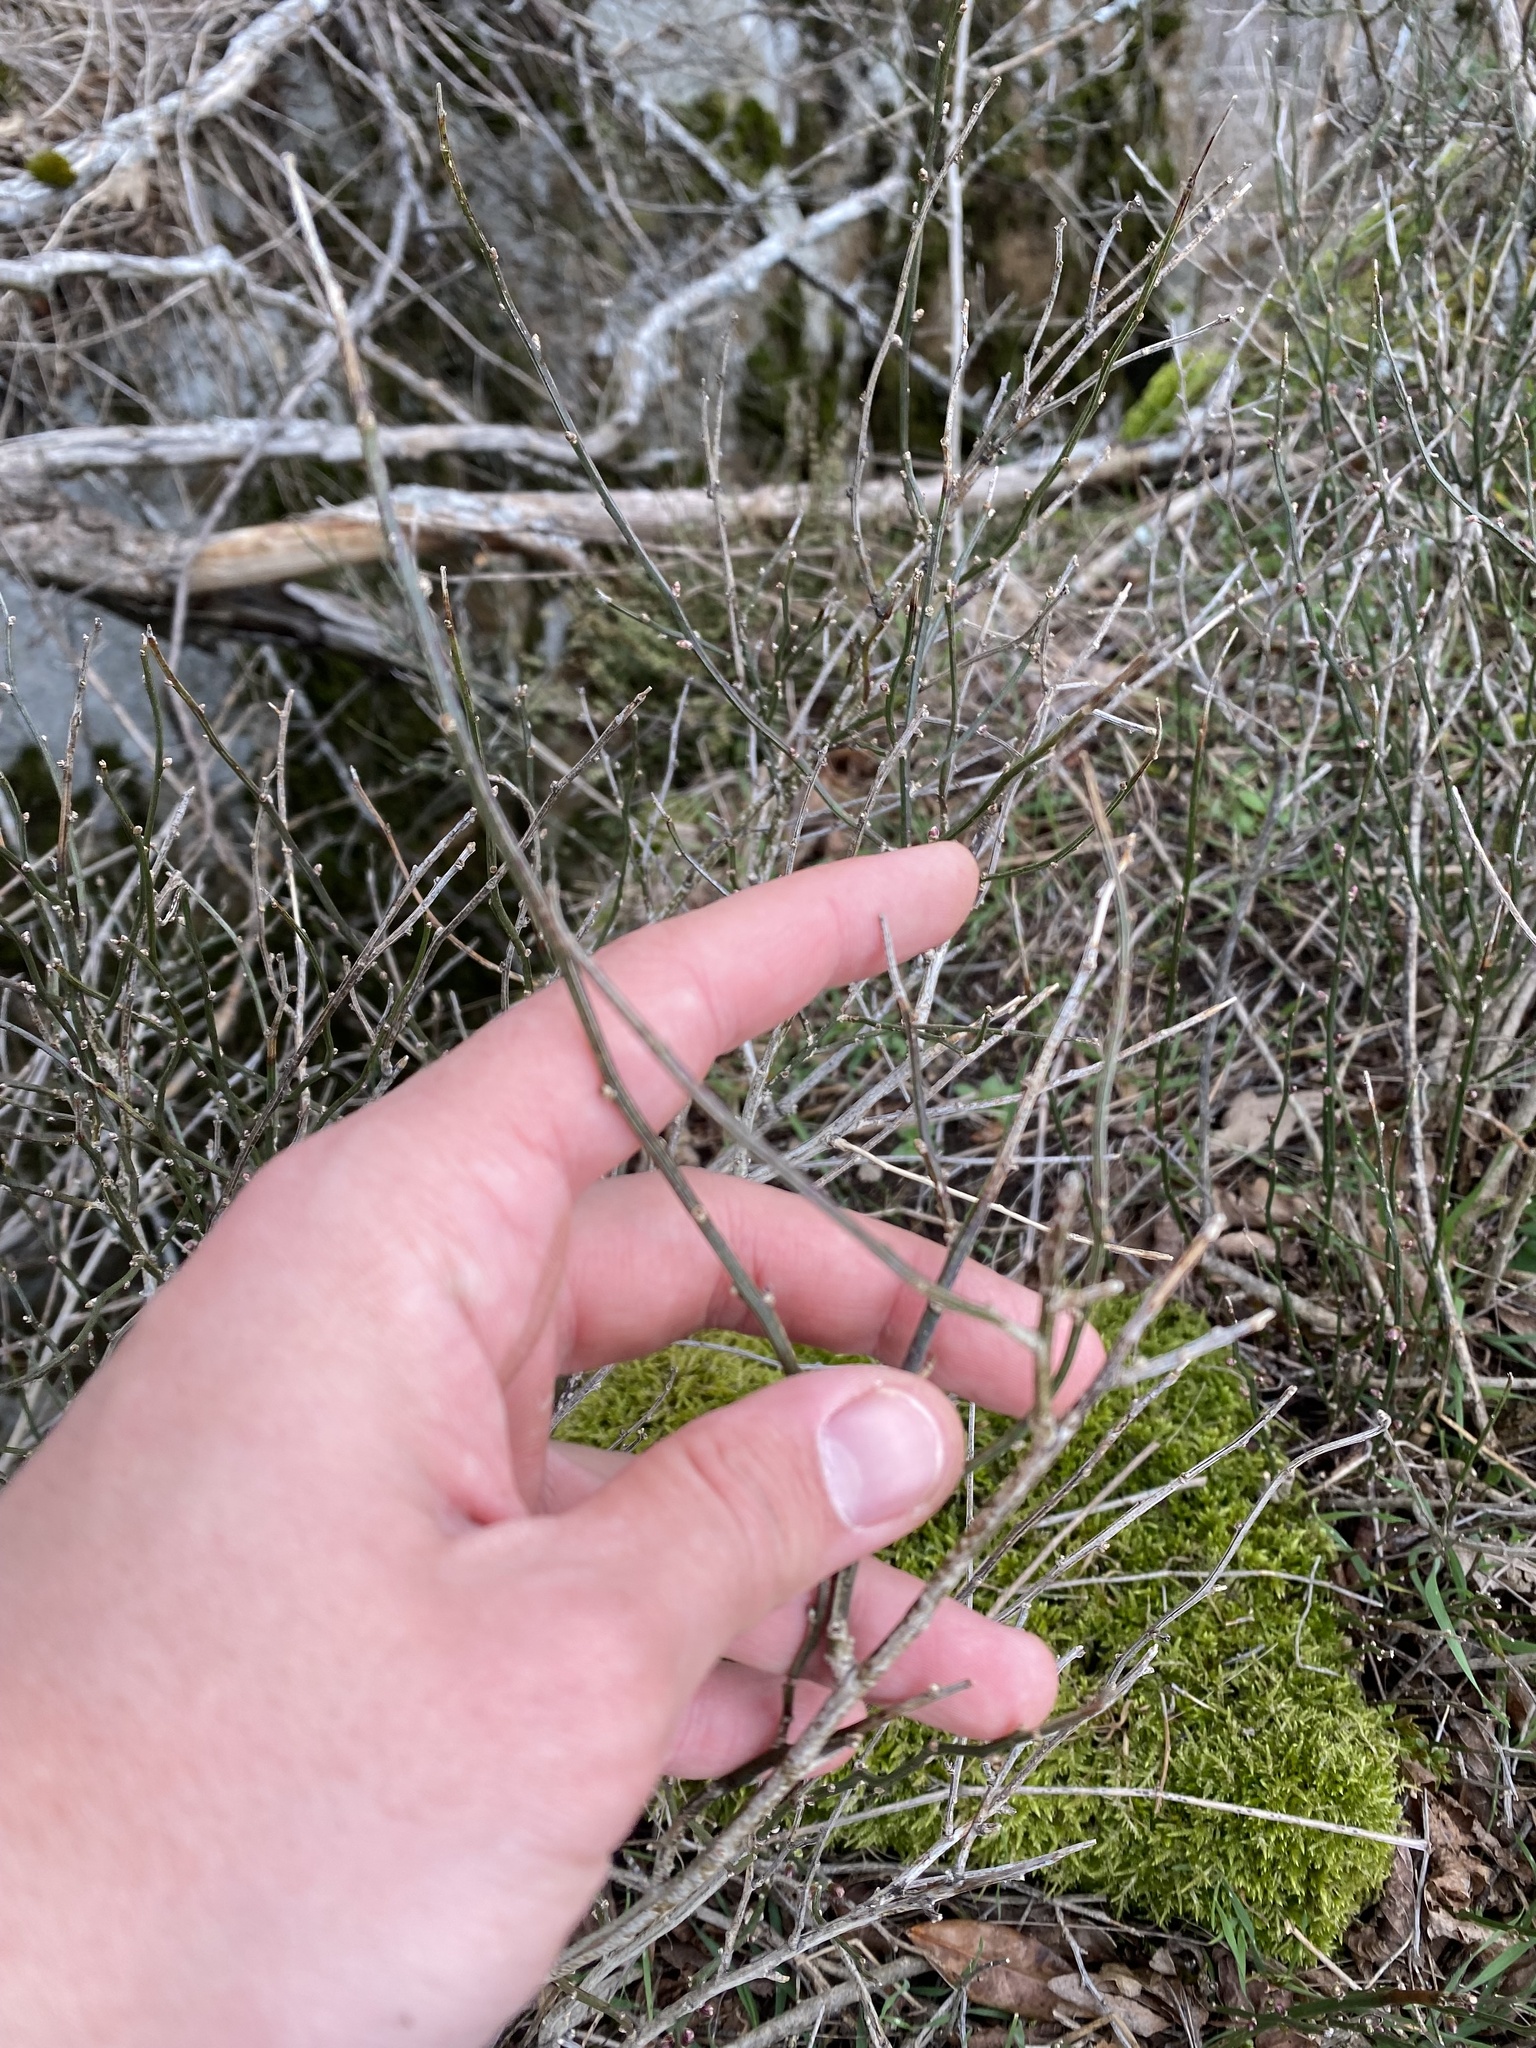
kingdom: Plantae
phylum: Tracheophyta
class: Magnoliopsida
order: Lamiales
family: Oleaceae
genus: Chrysojasminum
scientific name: Chrysojasminum fruticans
